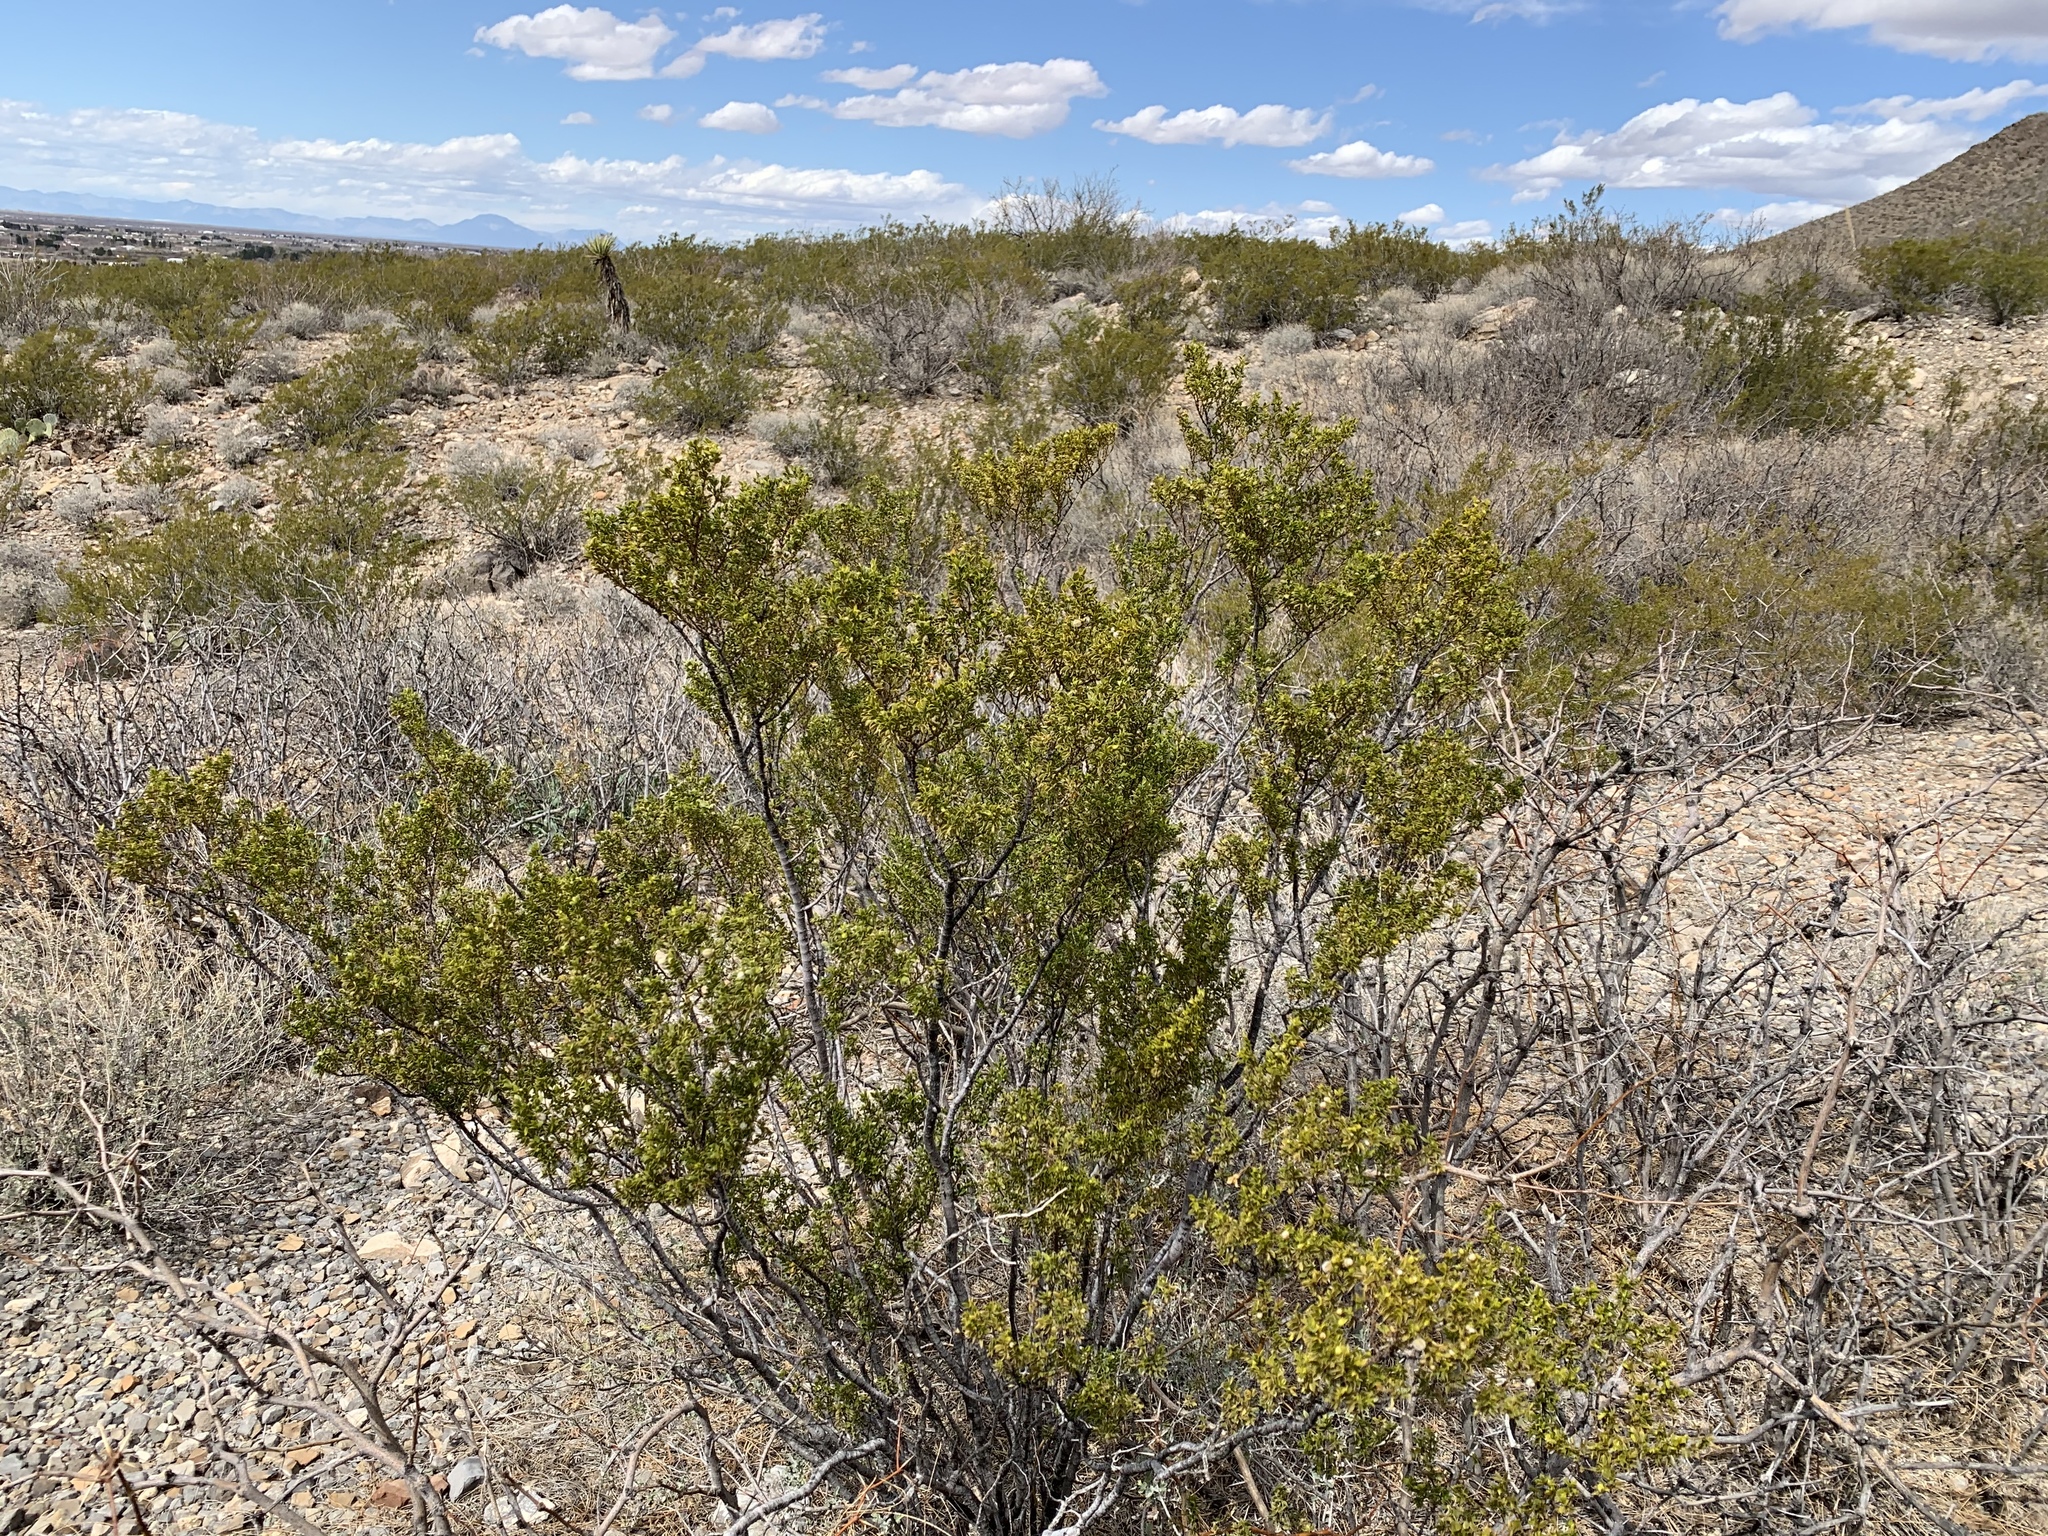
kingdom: Plantae
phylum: Tracheophyta
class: Magnoliopsida
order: Zygophyllales
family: Zygophyllaceae
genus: Larrea
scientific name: Larrea tridentata
